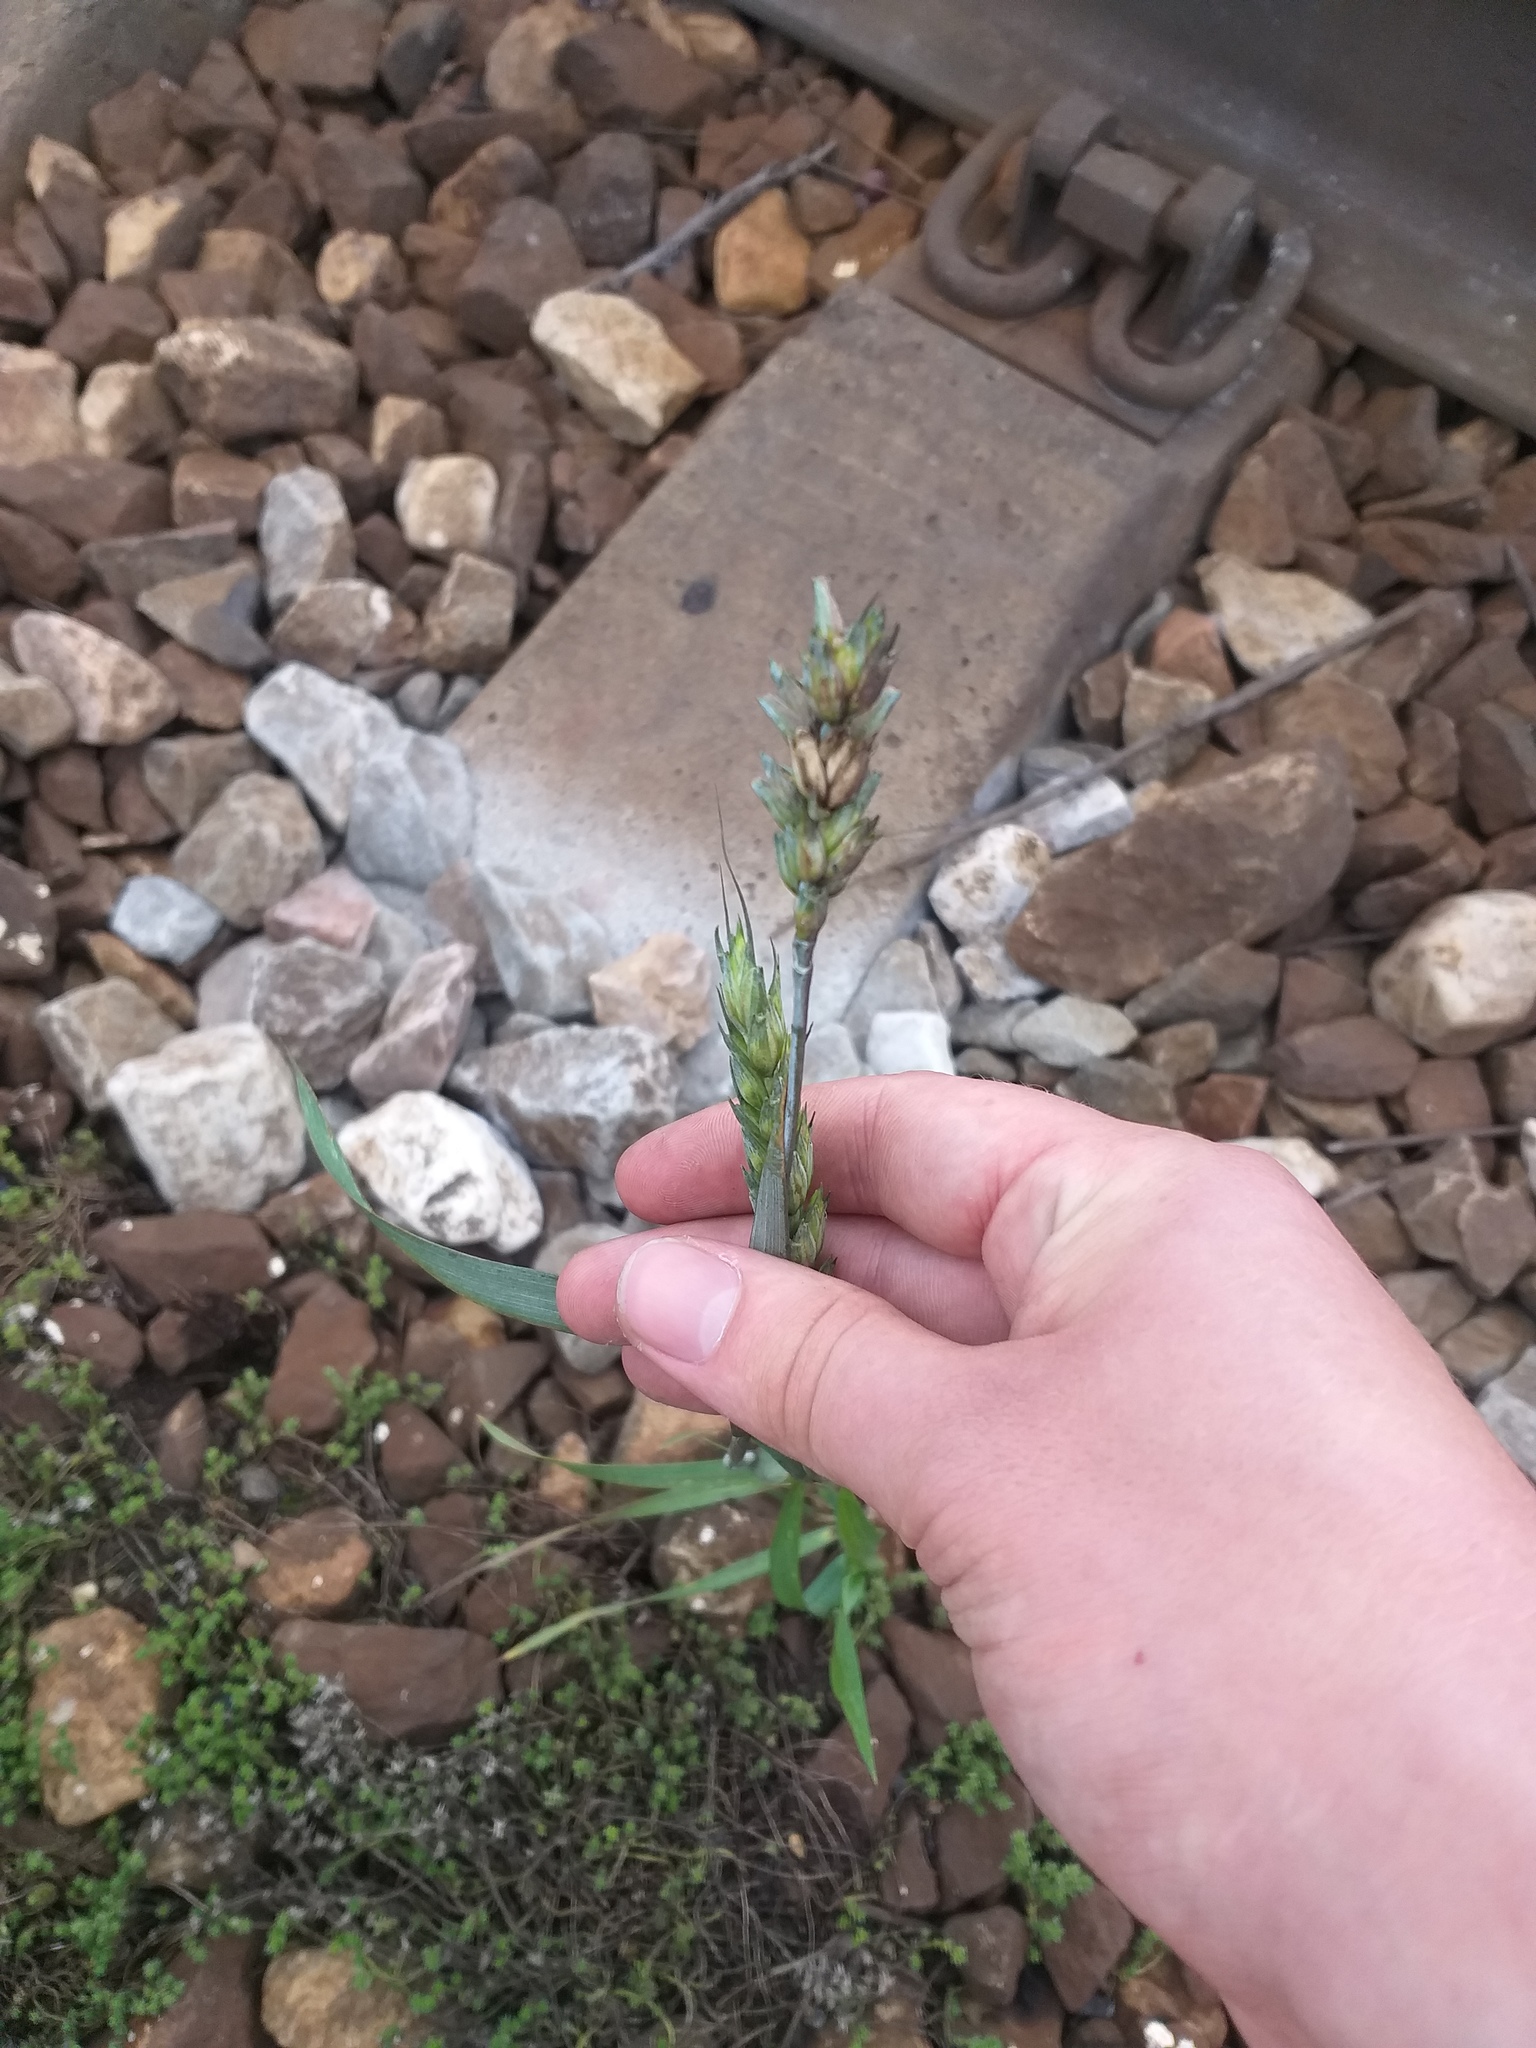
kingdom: Plantae
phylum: Tracheophyta
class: Liliopsida
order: Poales
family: Poaceae
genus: Triticum
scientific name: Triticum aestivum
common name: Common wheat
